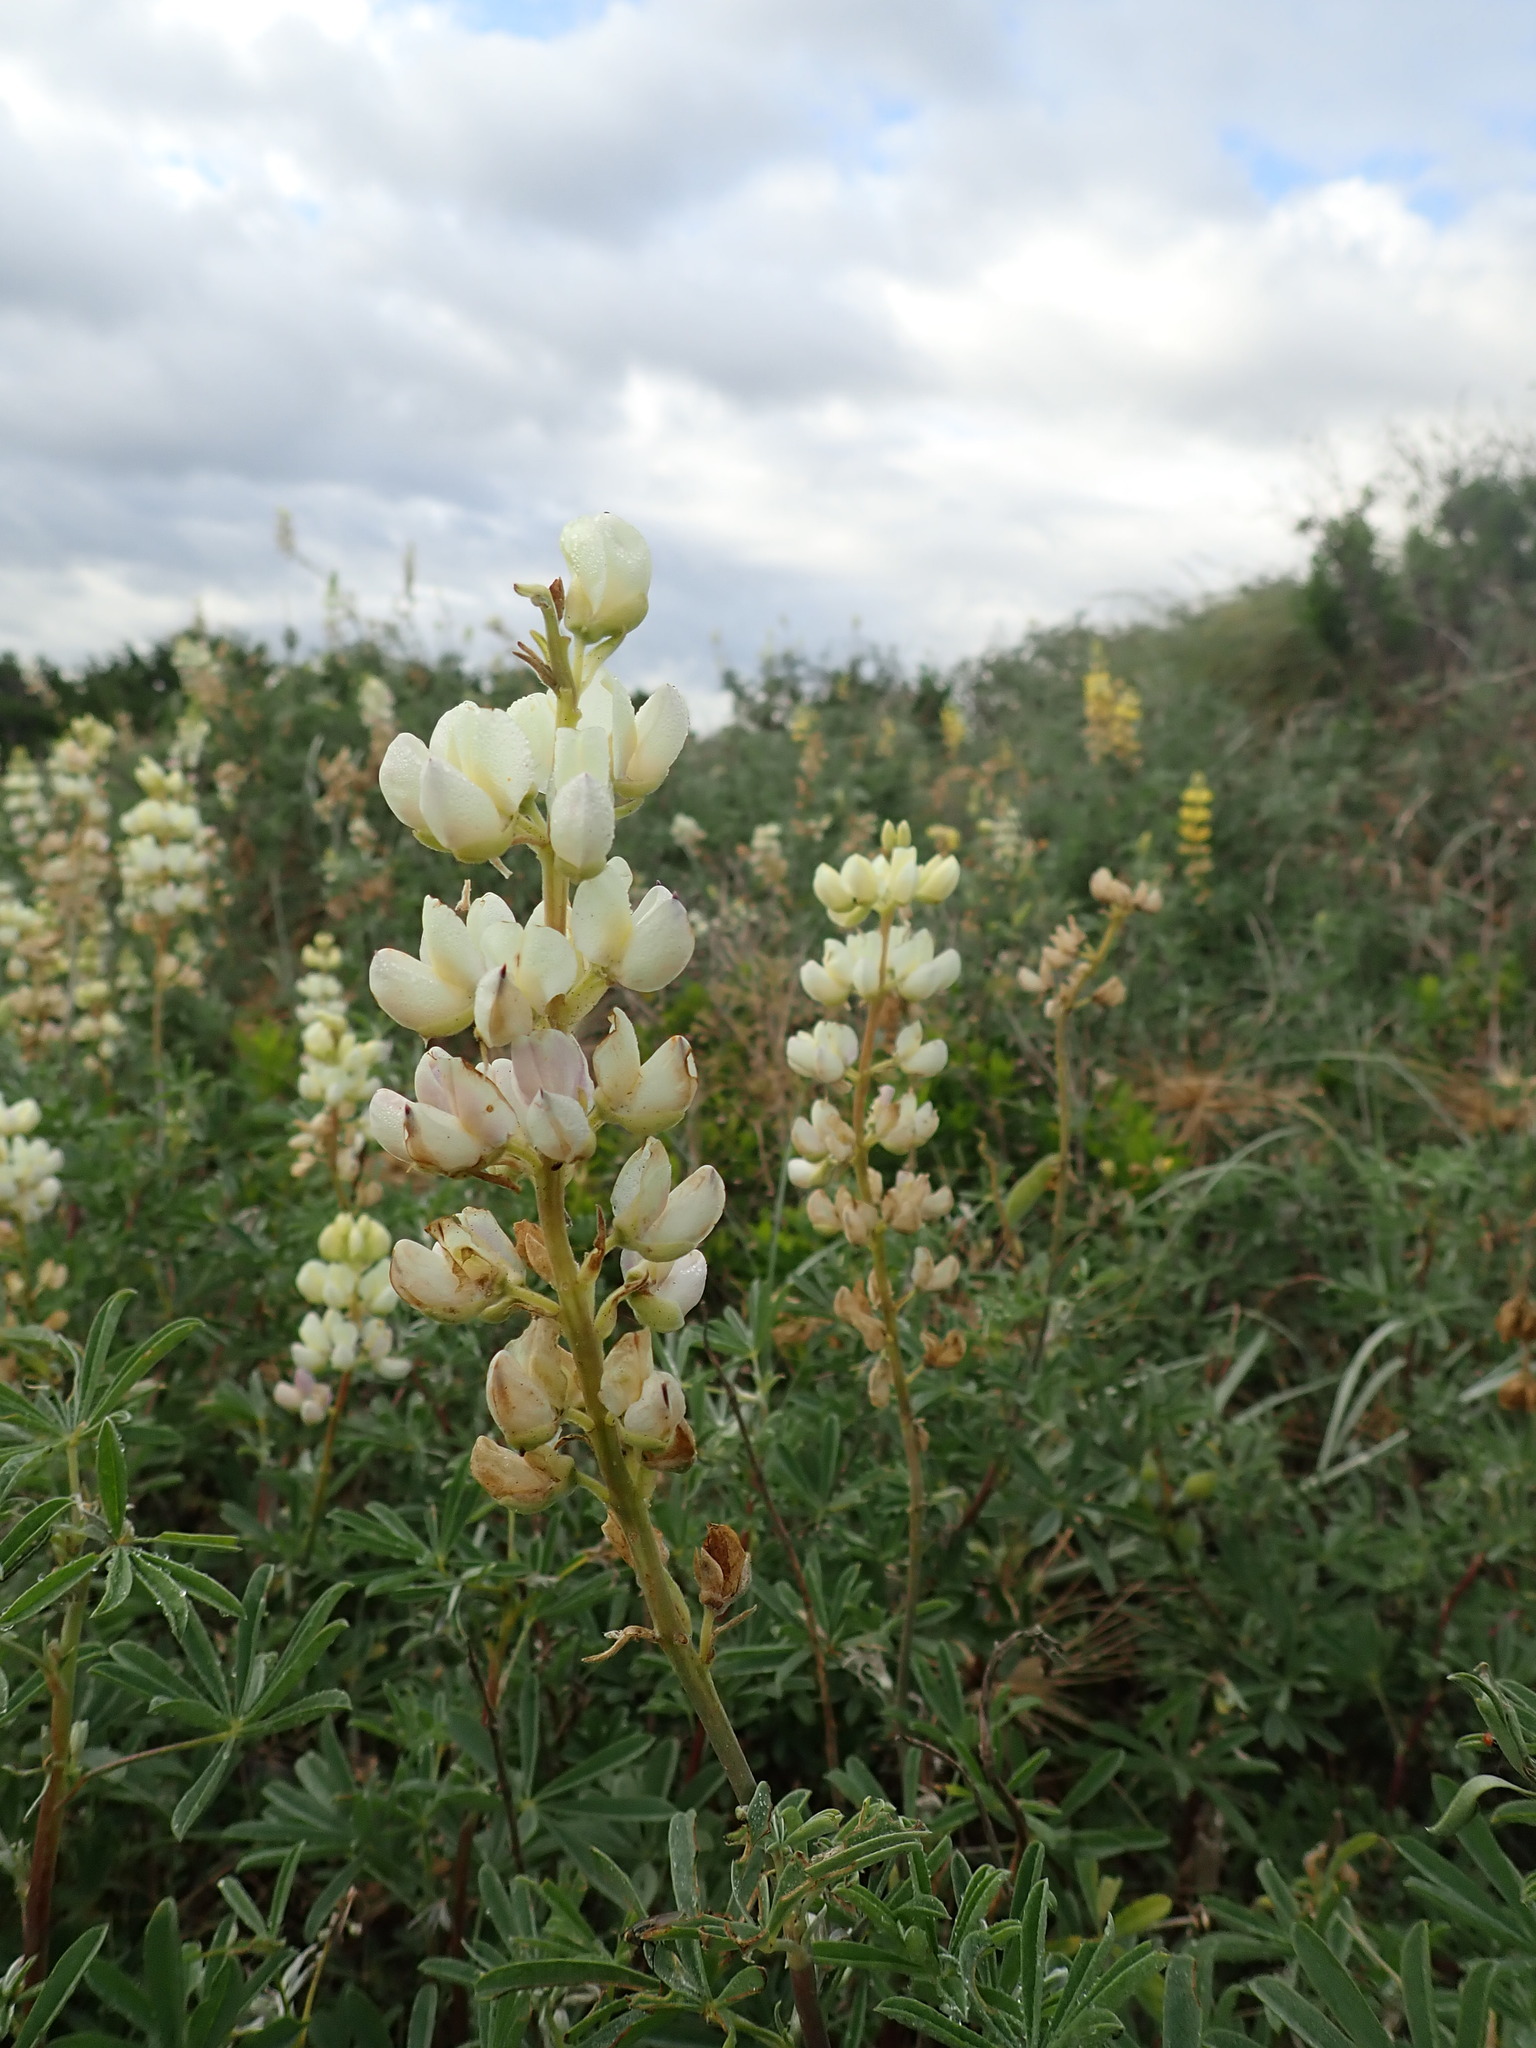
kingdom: Plantae
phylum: Tracheophyta
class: Magnoliopsida
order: Fabales
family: Fabaceae
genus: Lupinus
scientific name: Lupinus arboreus
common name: Yellow bush lupine
